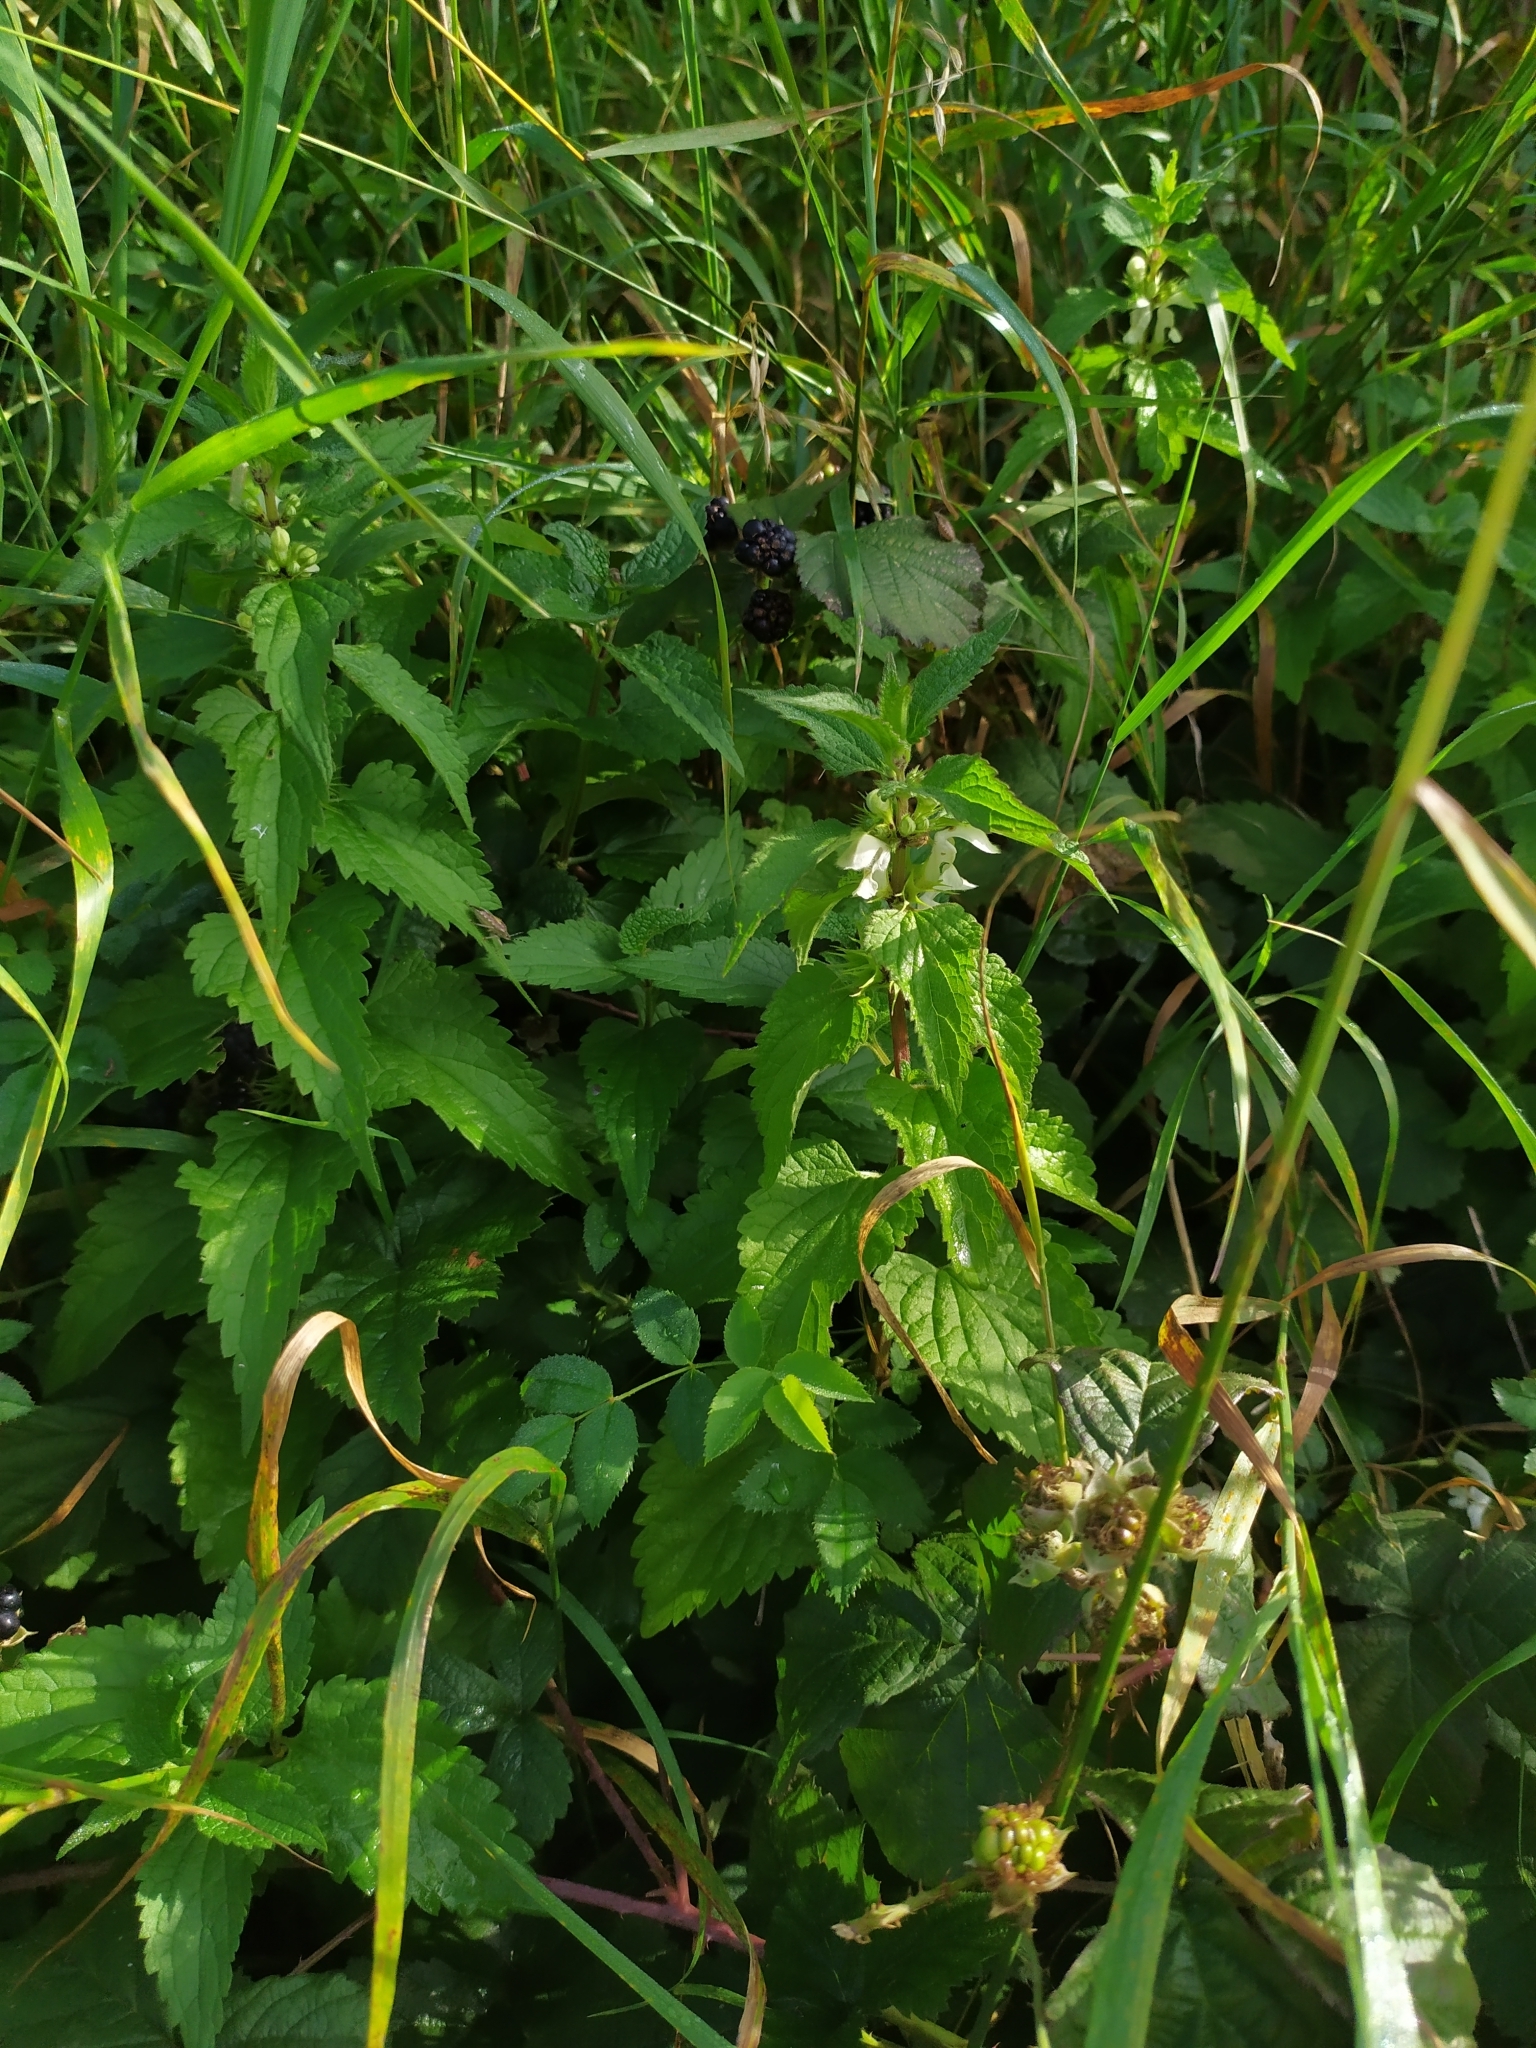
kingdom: Plantae
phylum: Tracheophyta
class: Magnoliopsida
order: Lamiales
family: Lamiaceae
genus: Lamium
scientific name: Lamium album
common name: White dead-nettle
